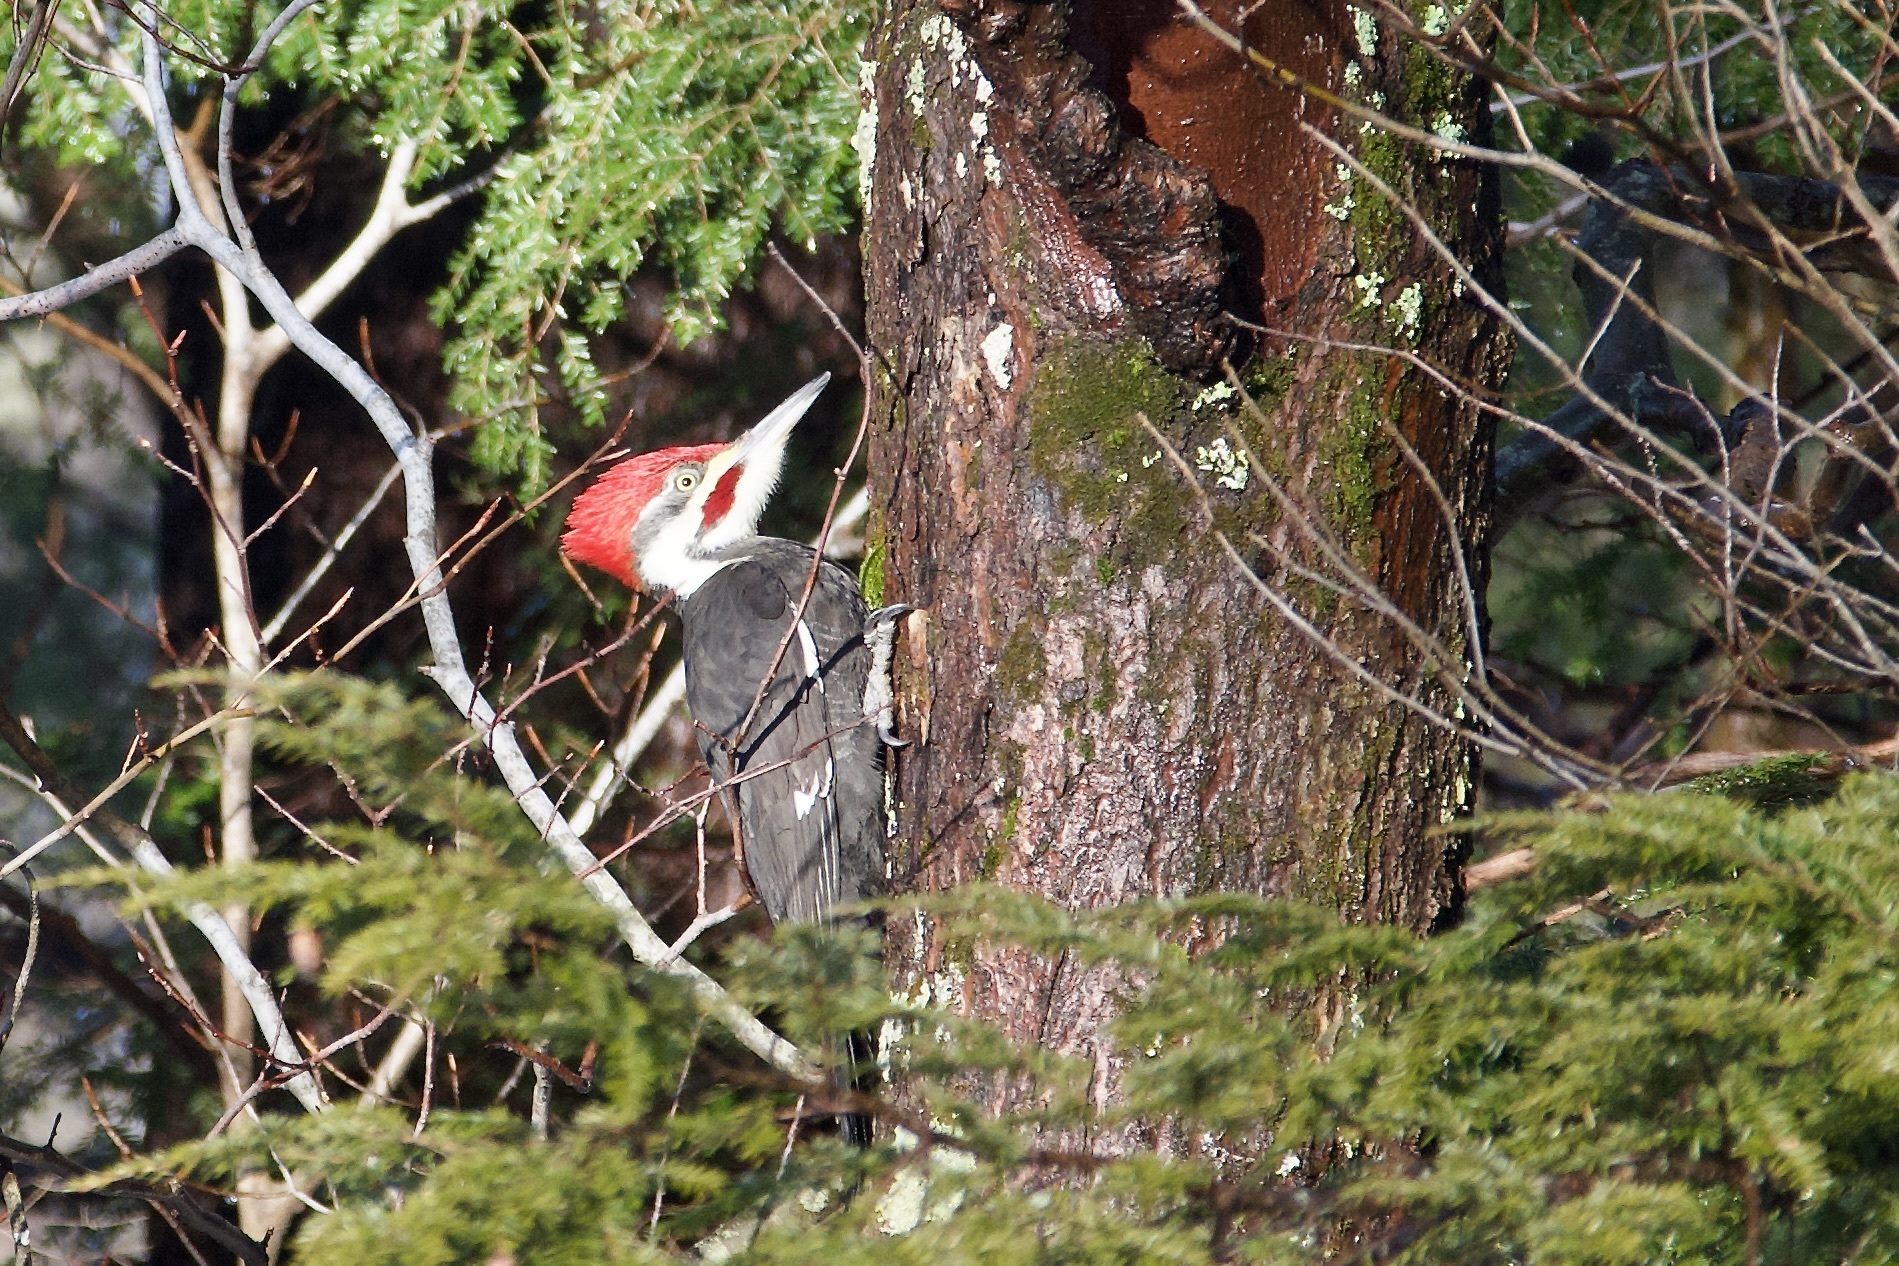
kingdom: Animalia
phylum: Chordata
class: Aves
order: Piciformes
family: Picidae
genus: Dryocopus
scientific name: Dryocopus pileatus
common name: Pileated woodpecker
